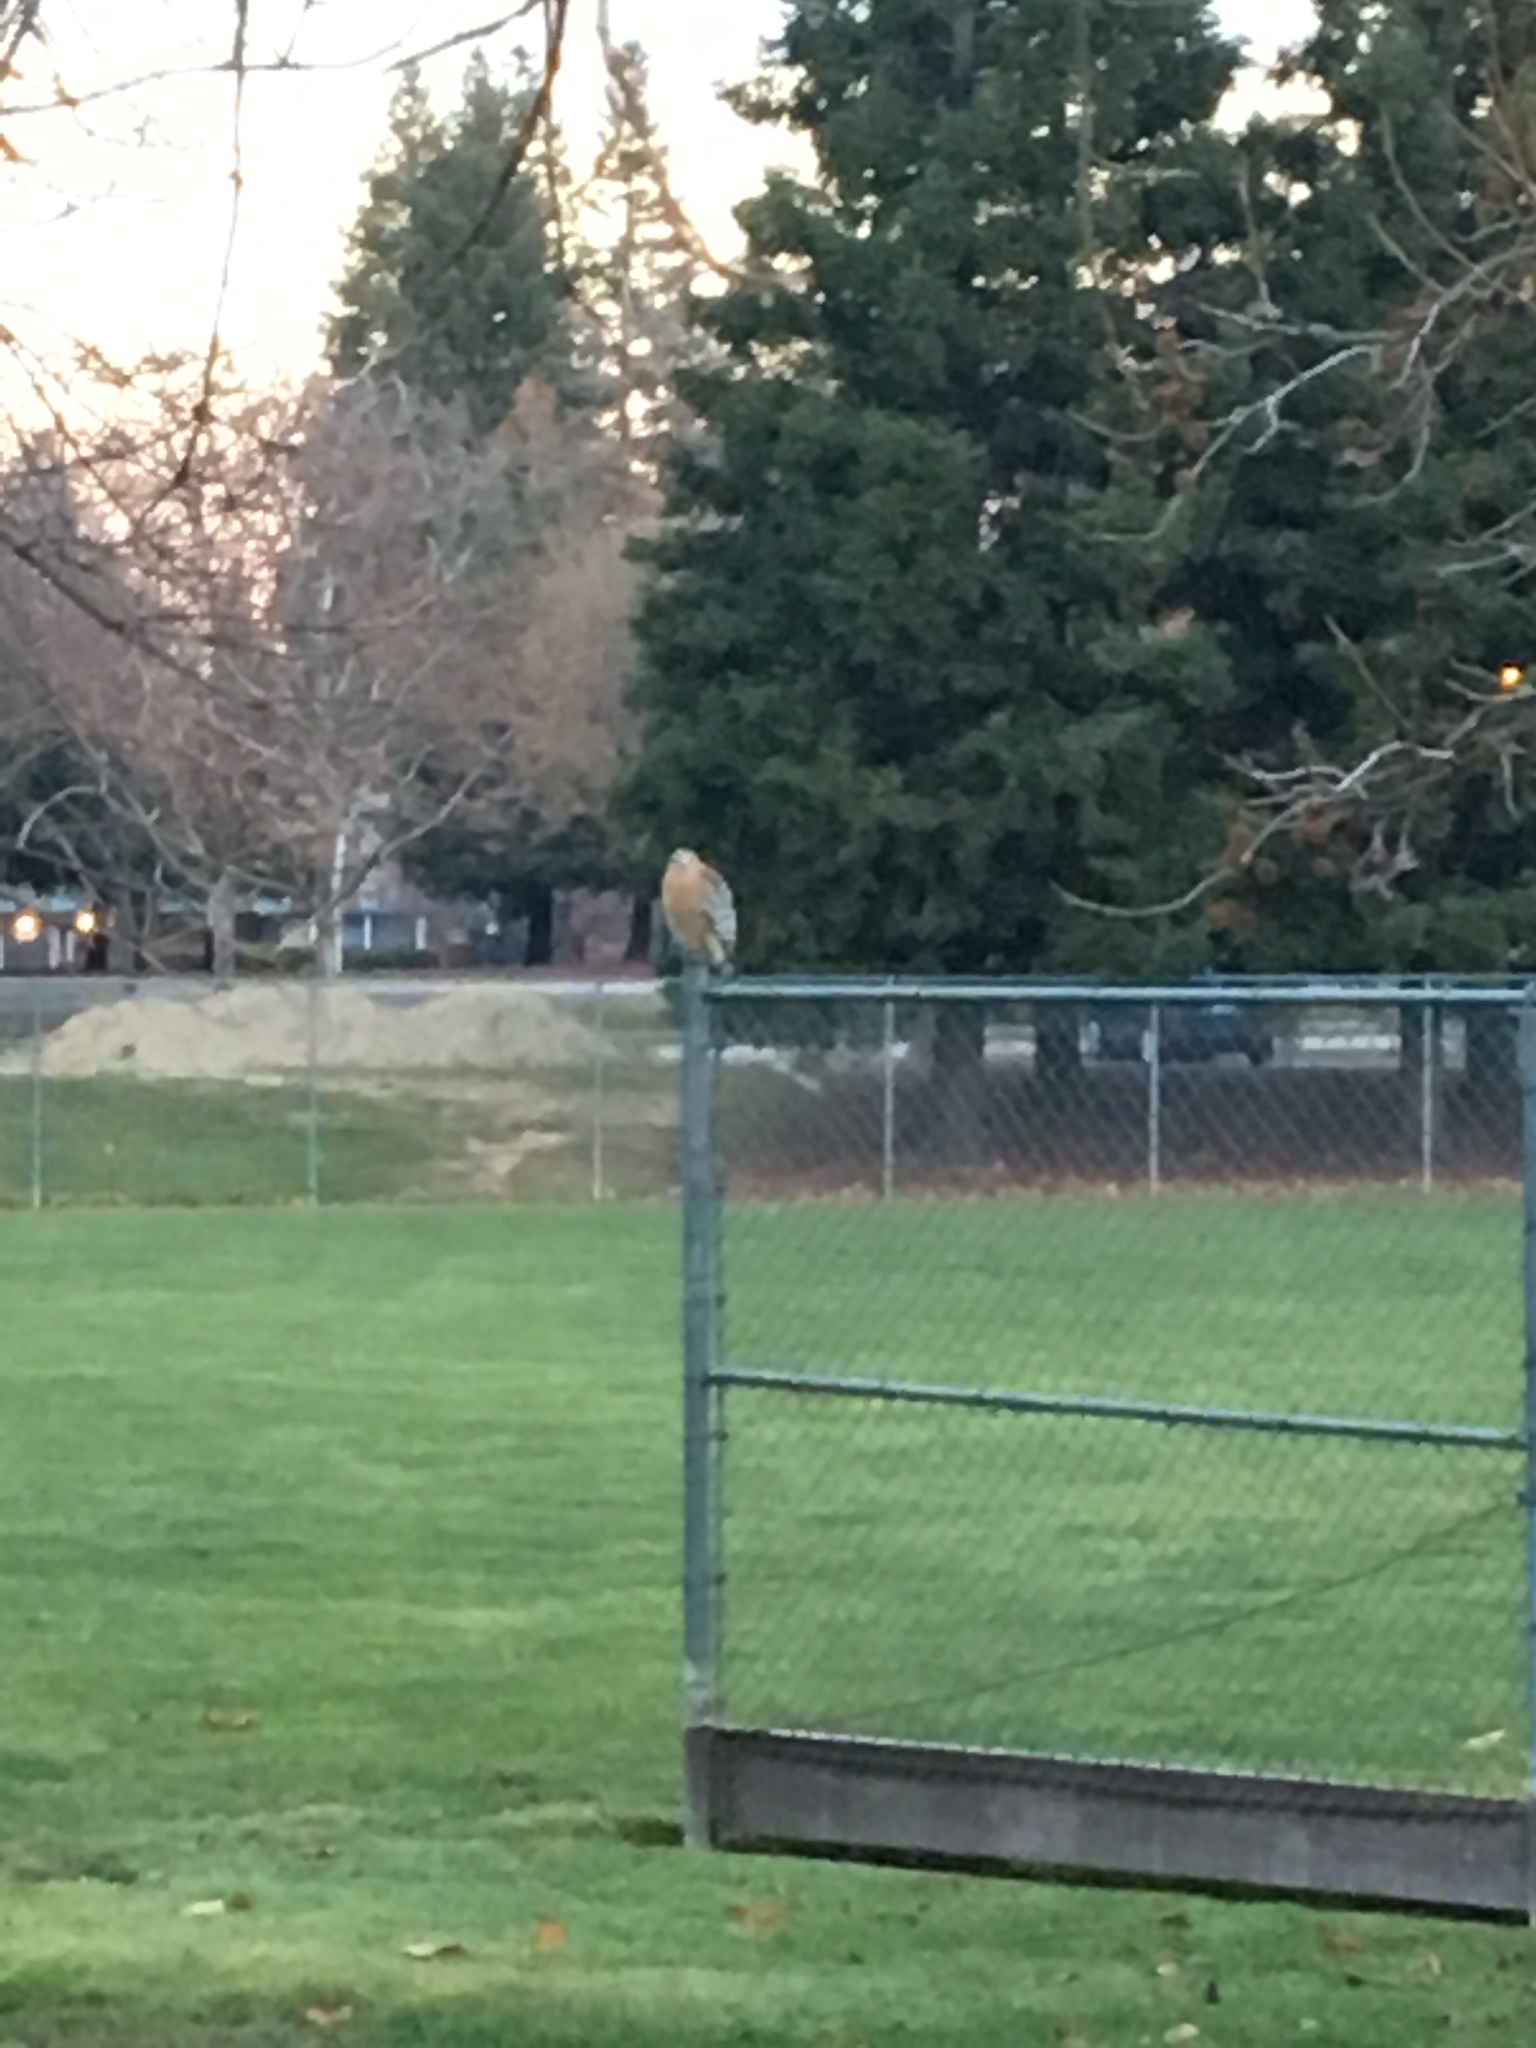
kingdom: Animalia
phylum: Chordata
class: Aves
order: Accipitriformes
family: Accipitridae
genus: Buteo
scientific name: Buteo lineatus
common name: Red-shouldered hawk
